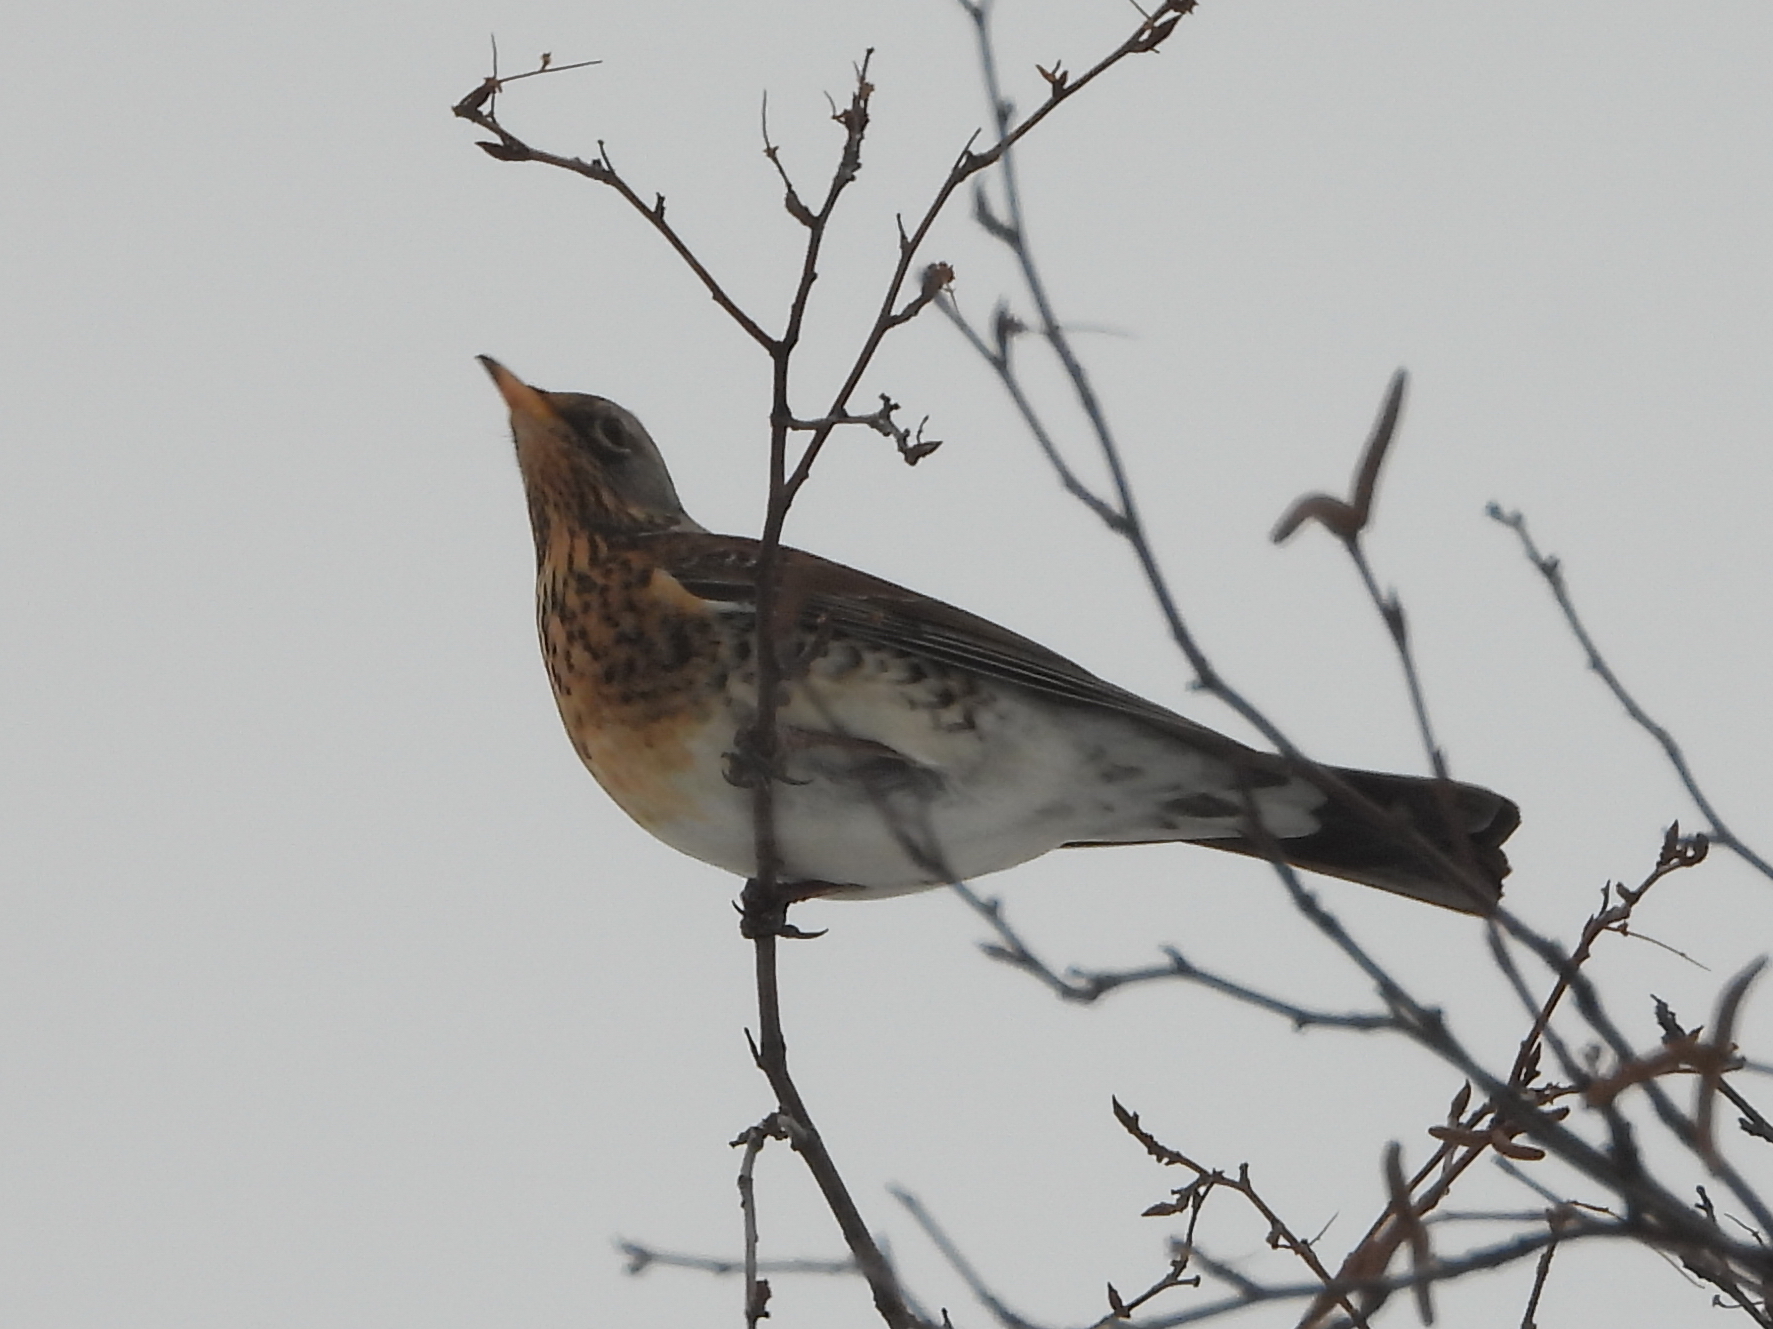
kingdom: Animalia
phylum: Chordata
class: Aves
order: Passeriformes
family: Turdidae
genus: Turdus
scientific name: Turdus pilaris
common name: Fieldfare
